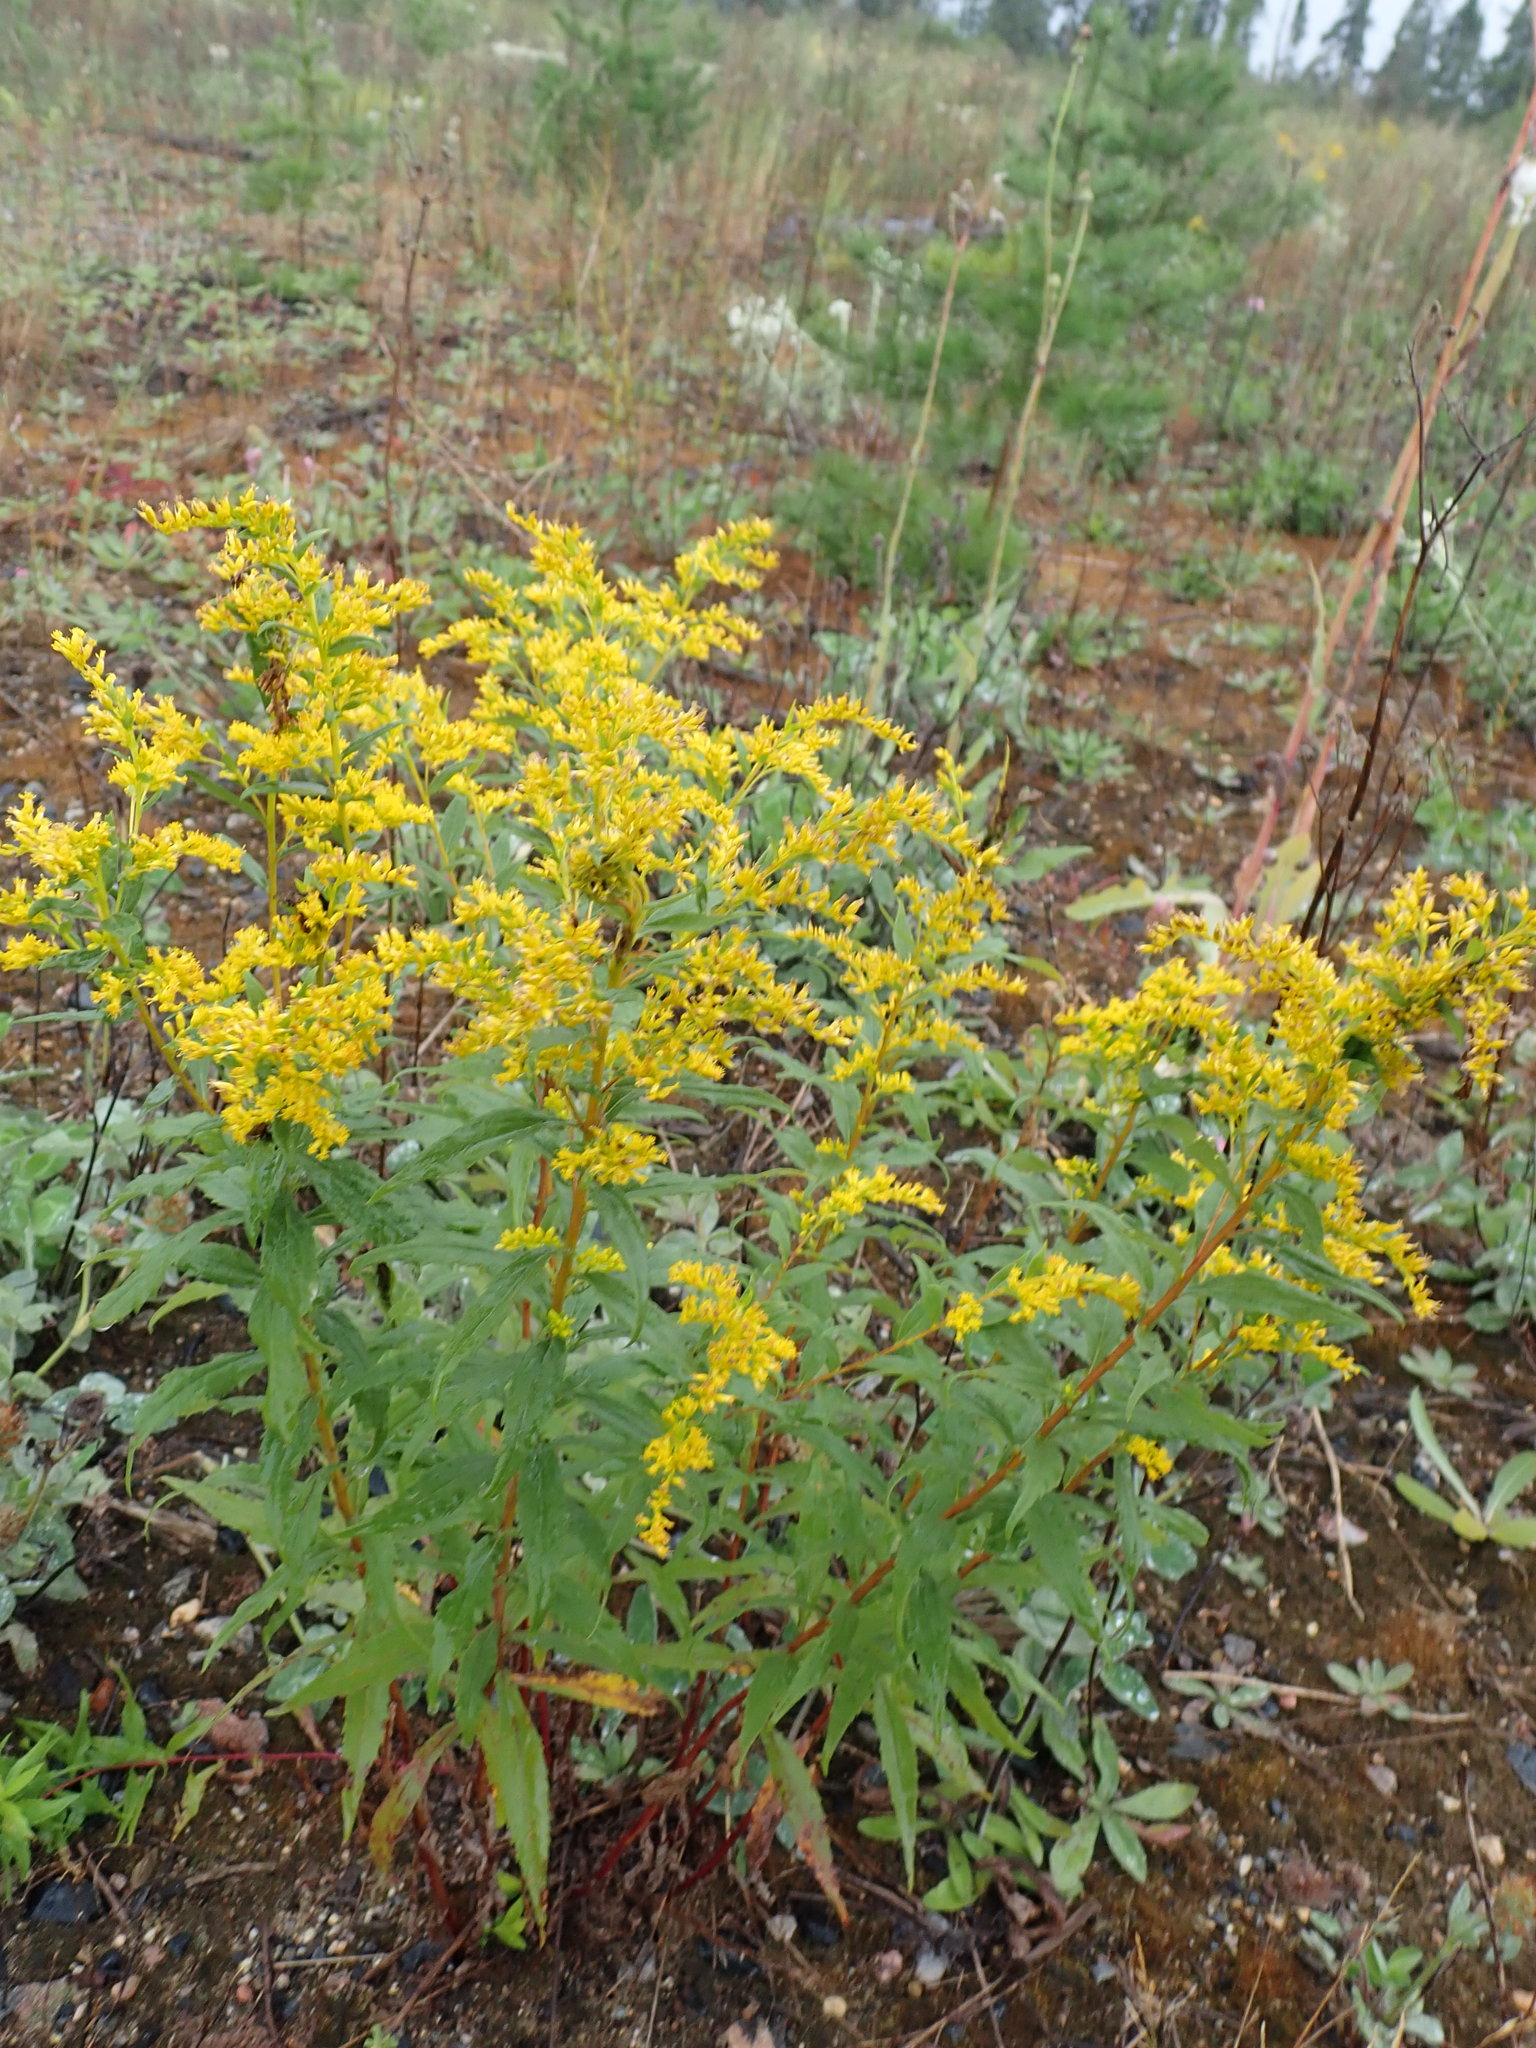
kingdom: Plantae
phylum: Tracheophyta
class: Magnoliopsida
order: Asterales
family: Asteraceae
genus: Solidago
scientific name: Solidago canadensis
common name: Canada goldenrod
